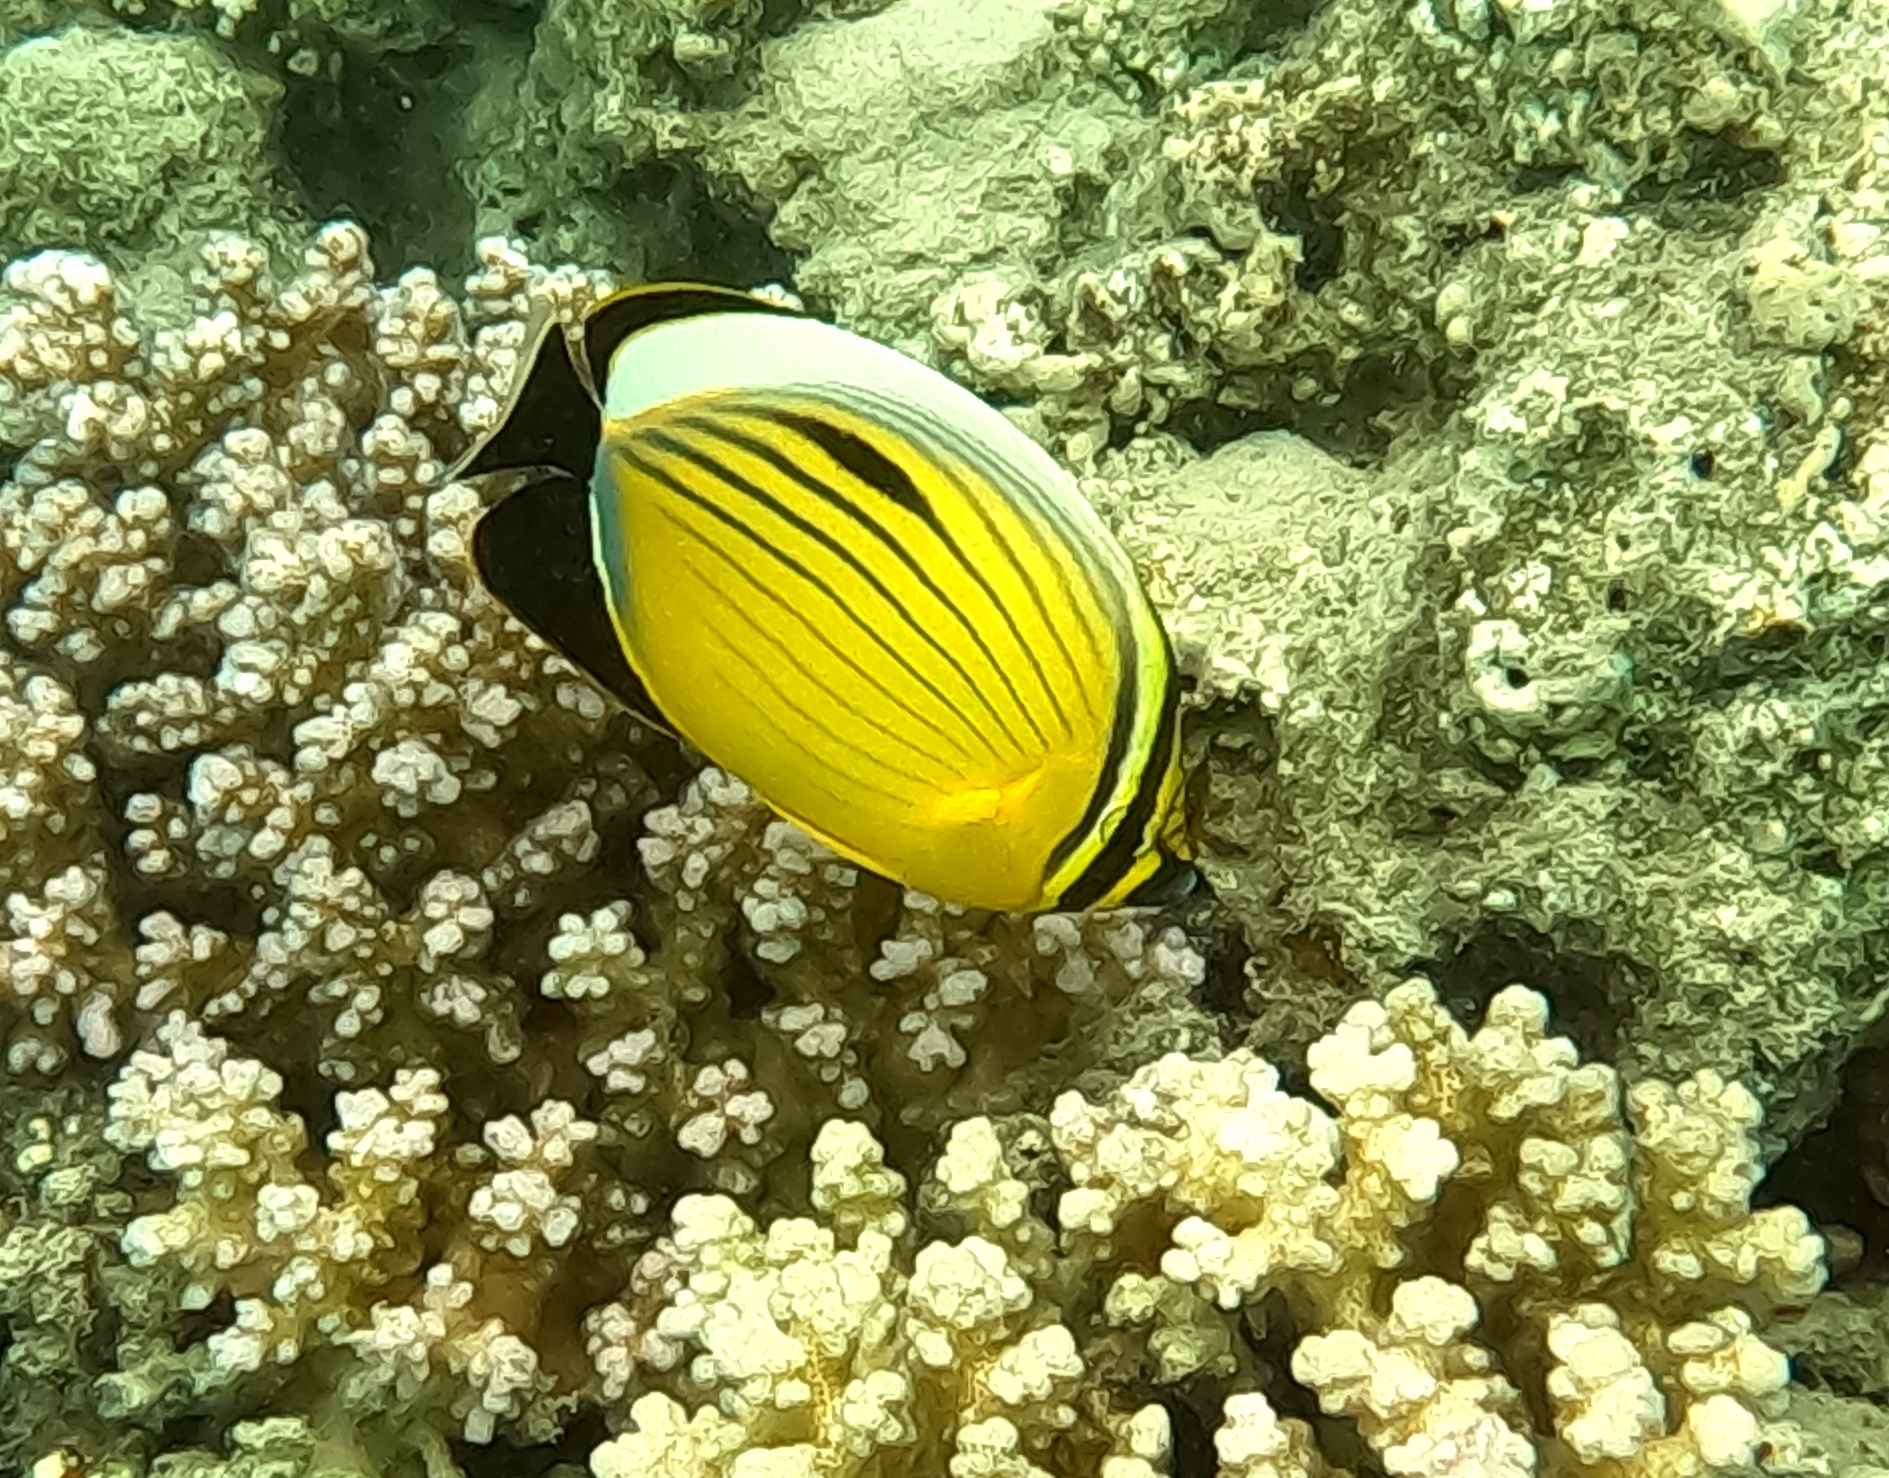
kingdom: Animalia
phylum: Chordata
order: Perciformes
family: Chaetodontidae
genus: Chaetodon
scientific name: Chaetodon austriacus
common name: Exquisite butterflyfish
